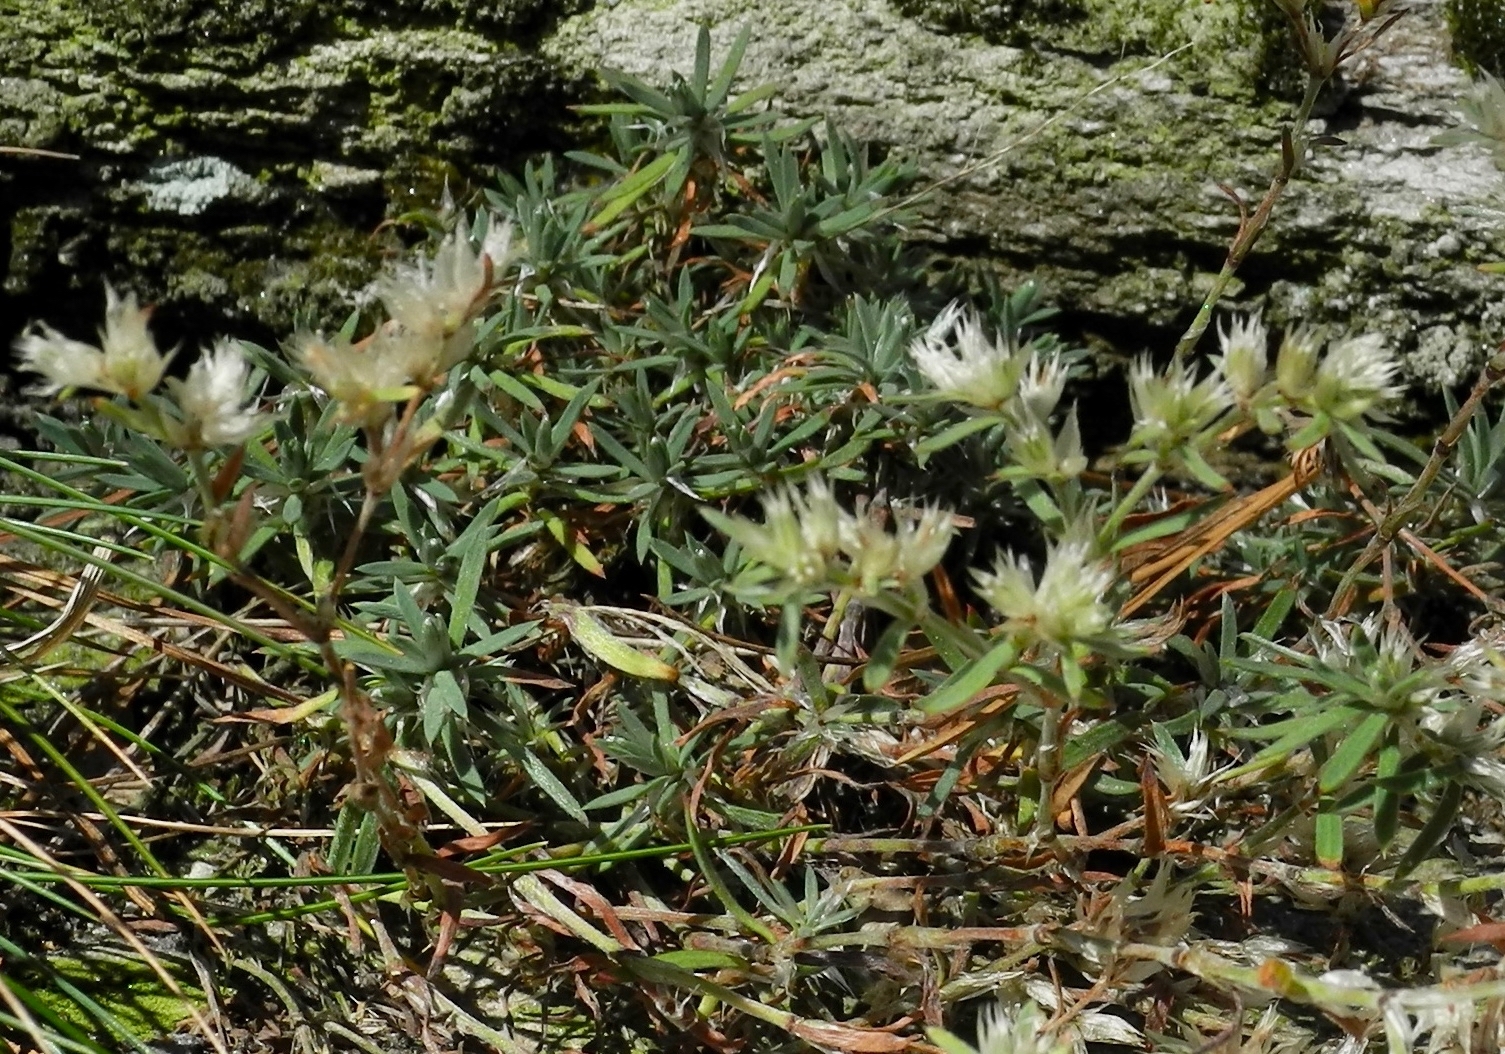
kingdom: Plantae
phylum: Tracheophyta
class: Magnoliopsida
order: Caryophyllales
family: Caryophyllaceae
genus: Paronychia
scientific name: Paronychia argyrocoma
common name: Silverling
